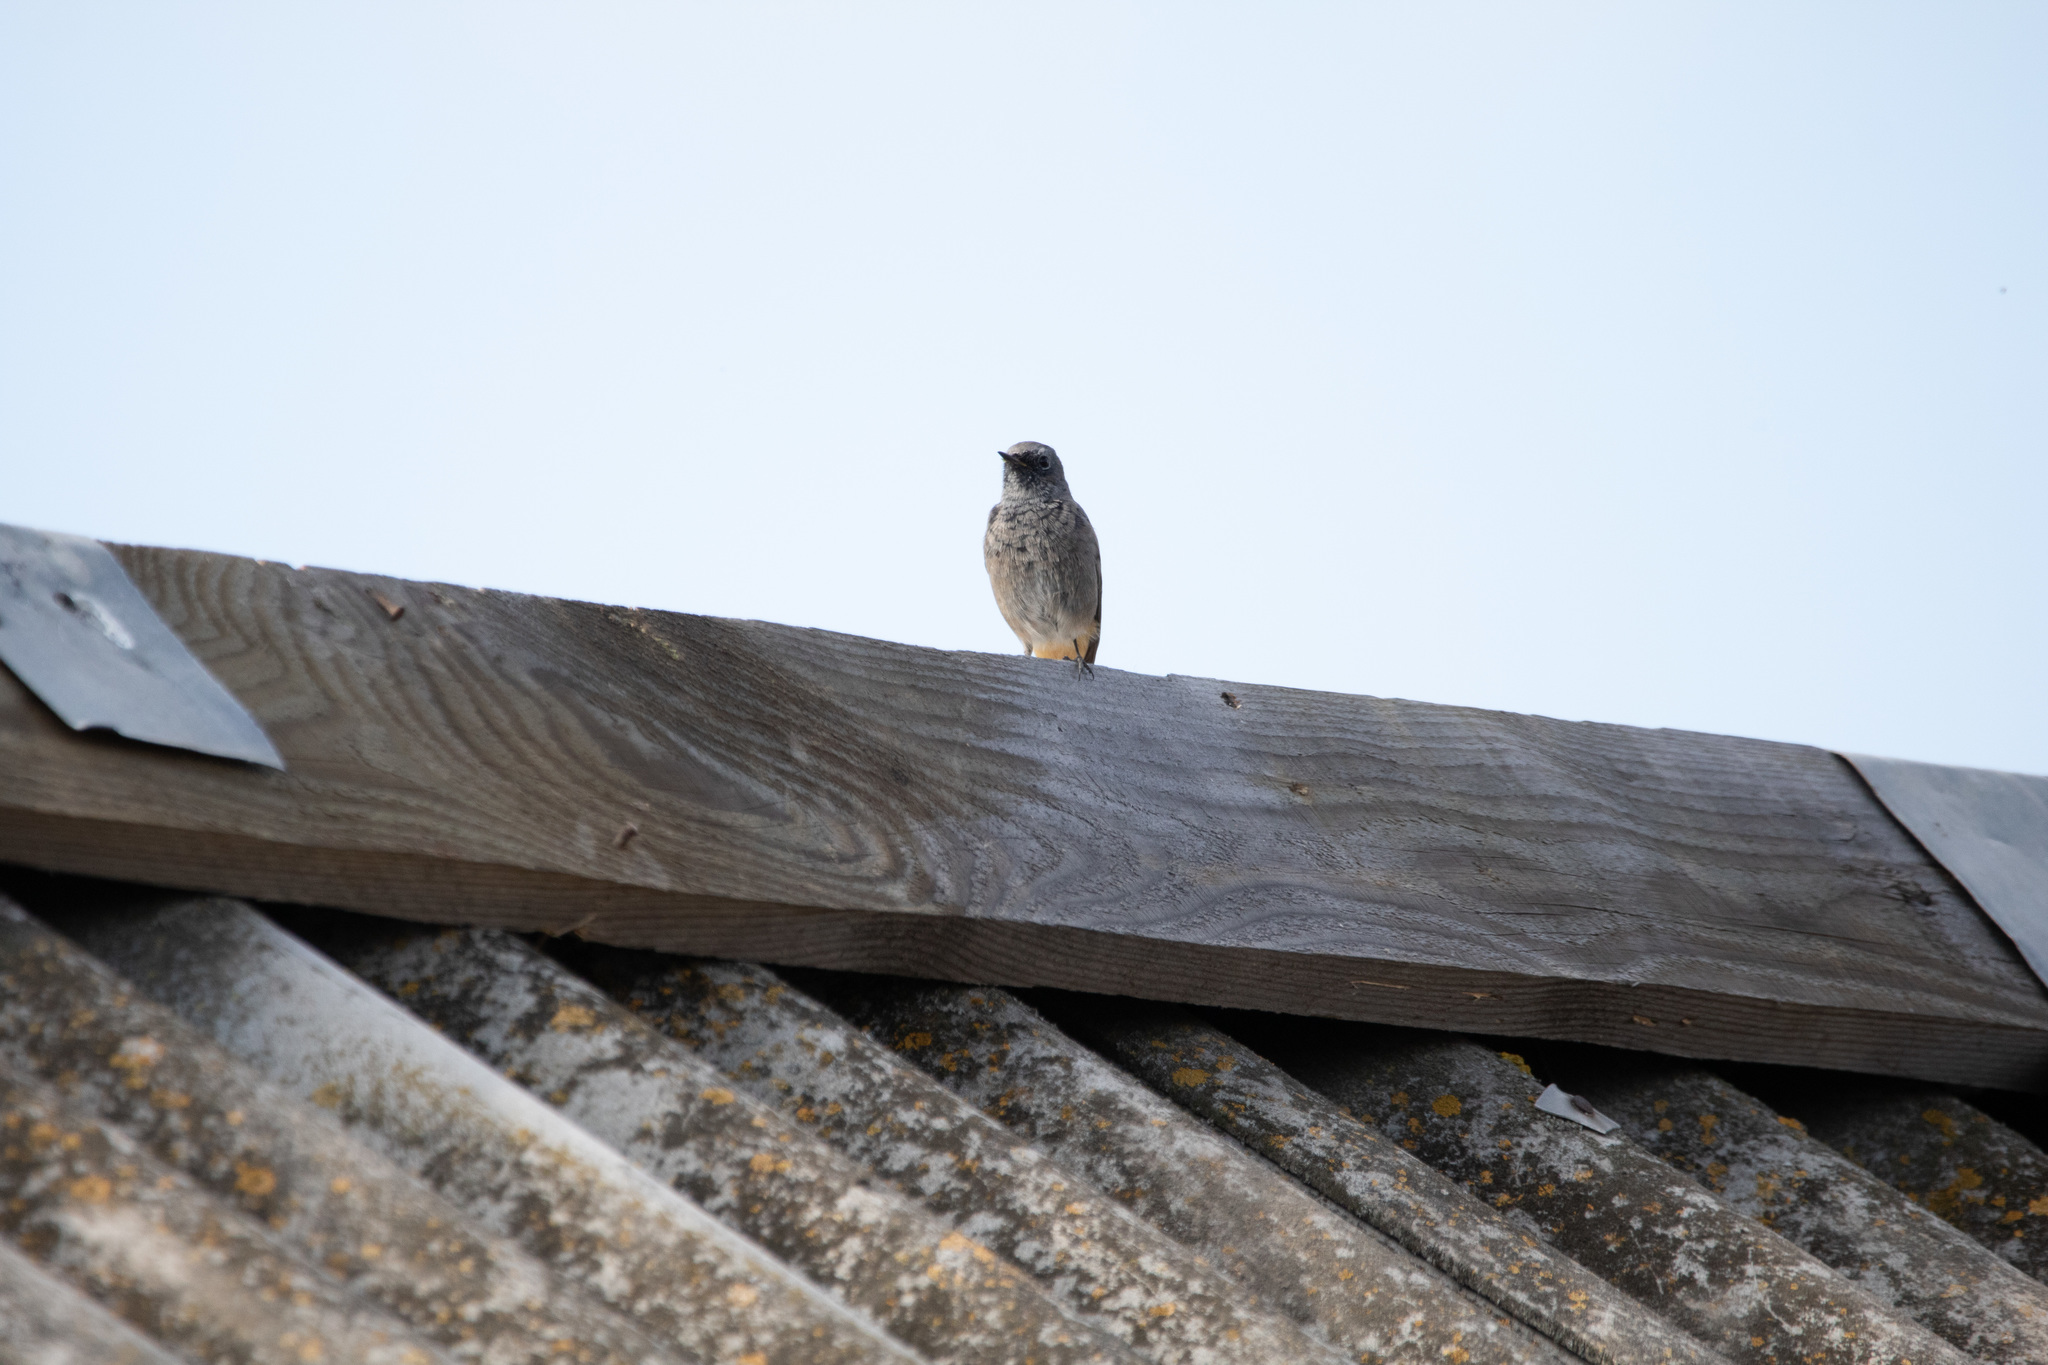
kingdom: Animalia
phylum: Chordata
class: Aves
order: Passeriformes
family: Muscicapidae
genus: Phoenicurus
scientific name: Phoenicurus ochruros
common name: Black redstart
